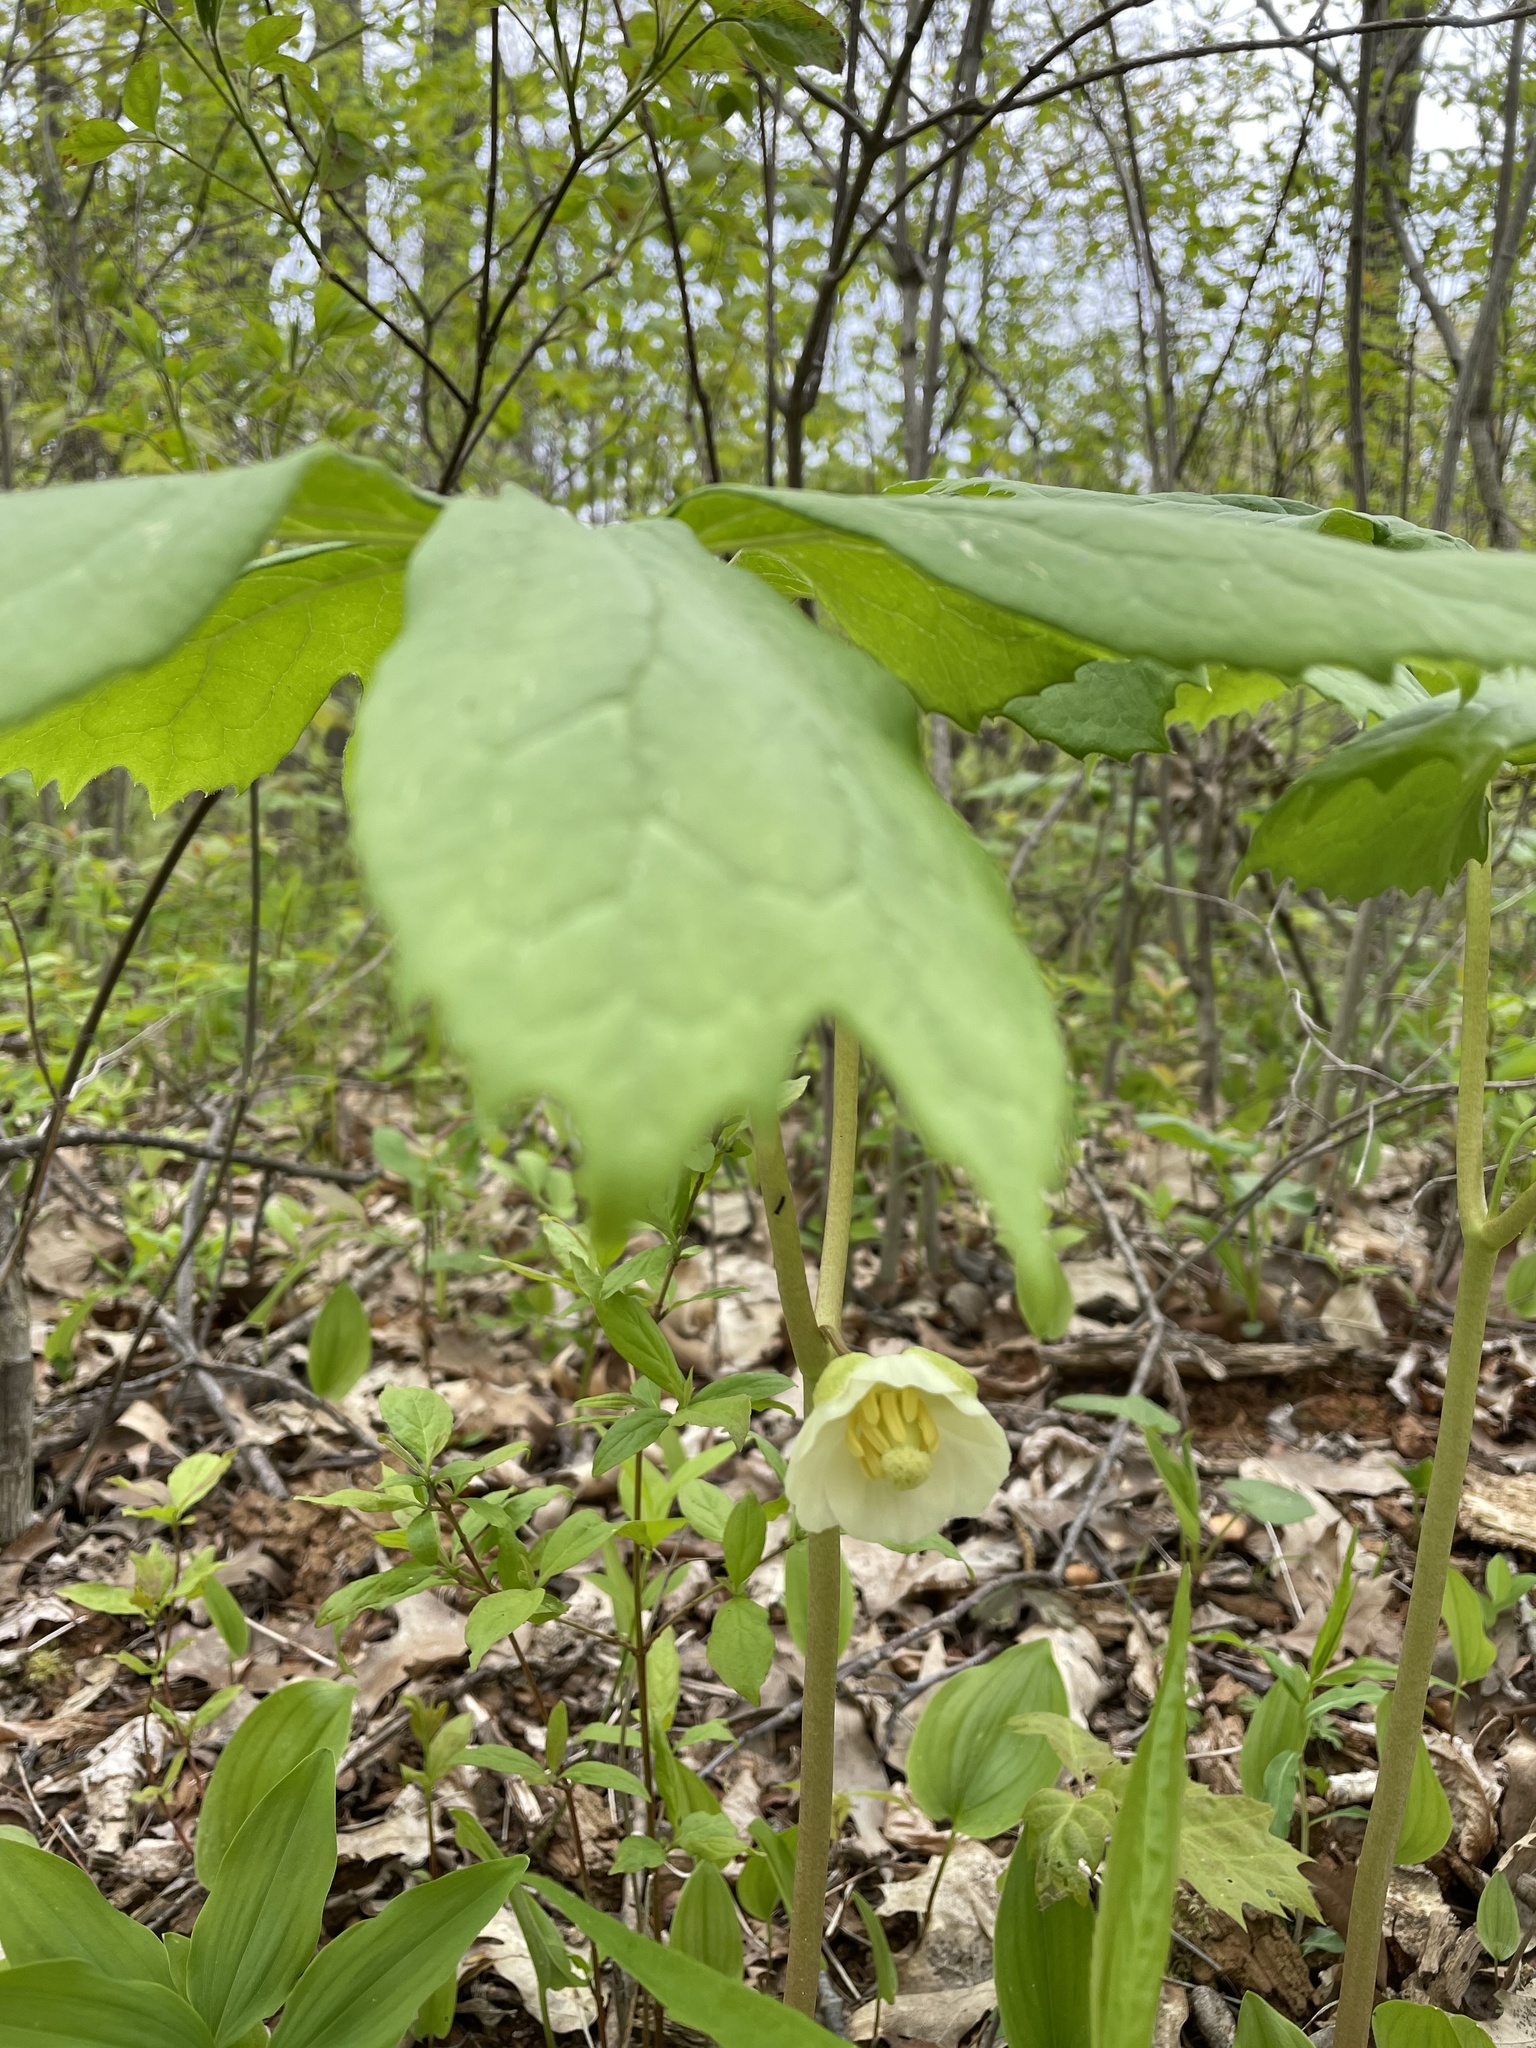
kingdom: Plantae
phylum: Tracheophyta
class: Magnoliopsida
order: Ranunculales
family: Berberidaceae
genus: Podophyllum
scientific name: Podophyllum peltatum
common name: Wild mandrake
